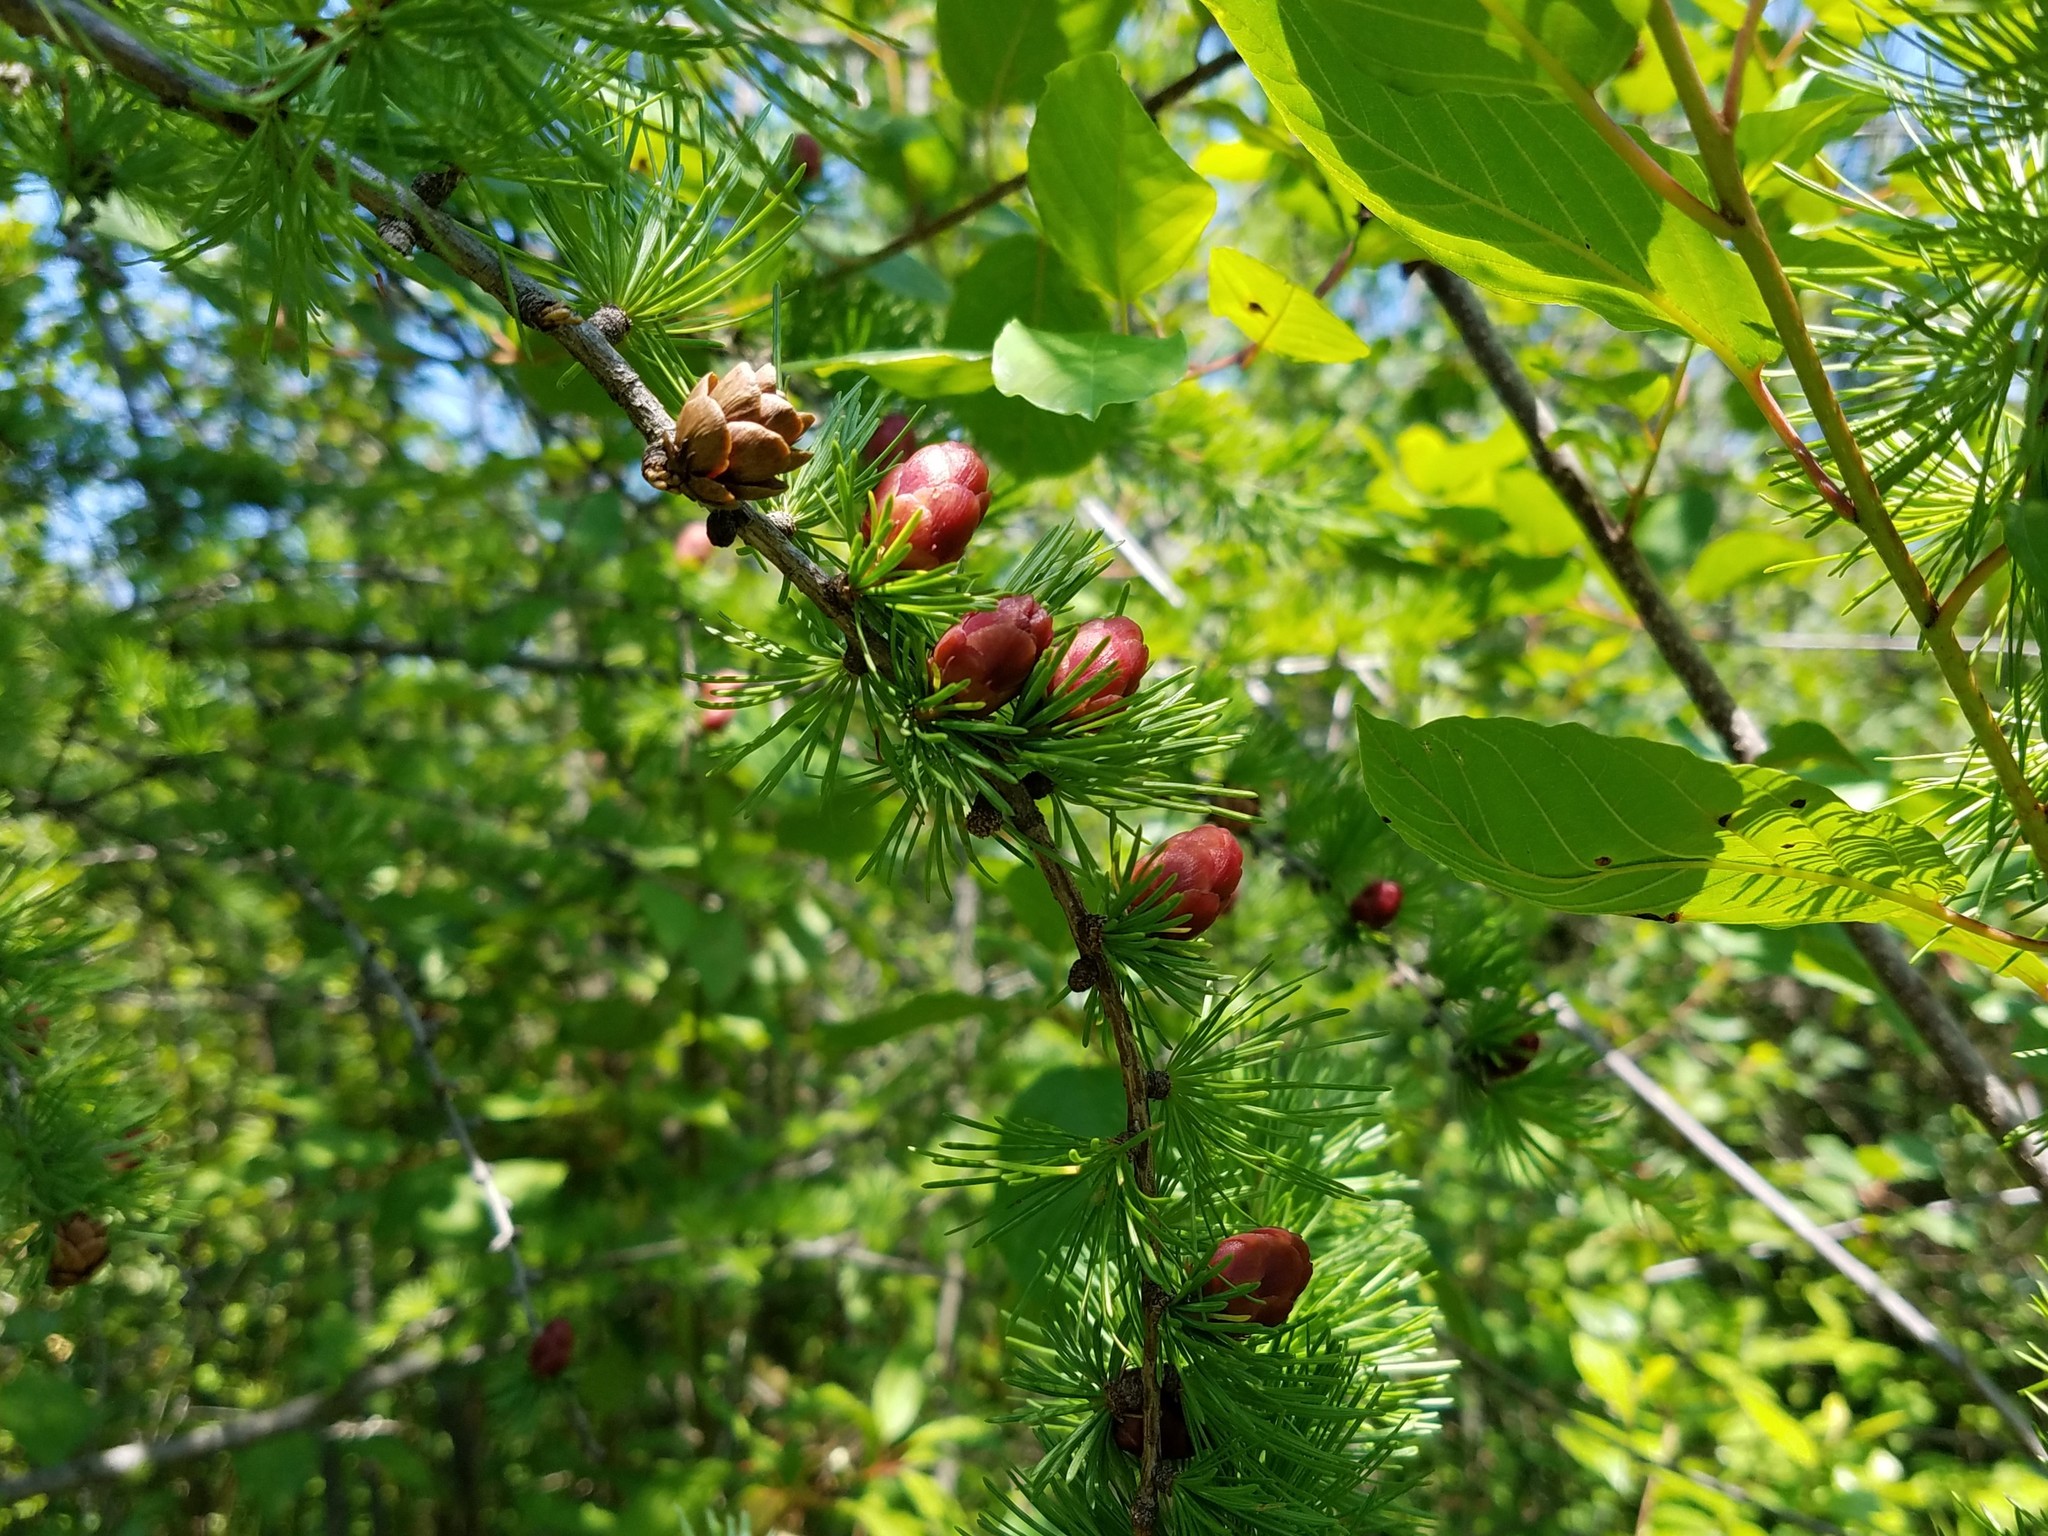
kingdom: Plantae
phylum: Tracheophyta
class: Pinopsida
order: Pinales
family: Pinaceae
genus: Larix
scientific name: Larix laricina
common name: American larch
